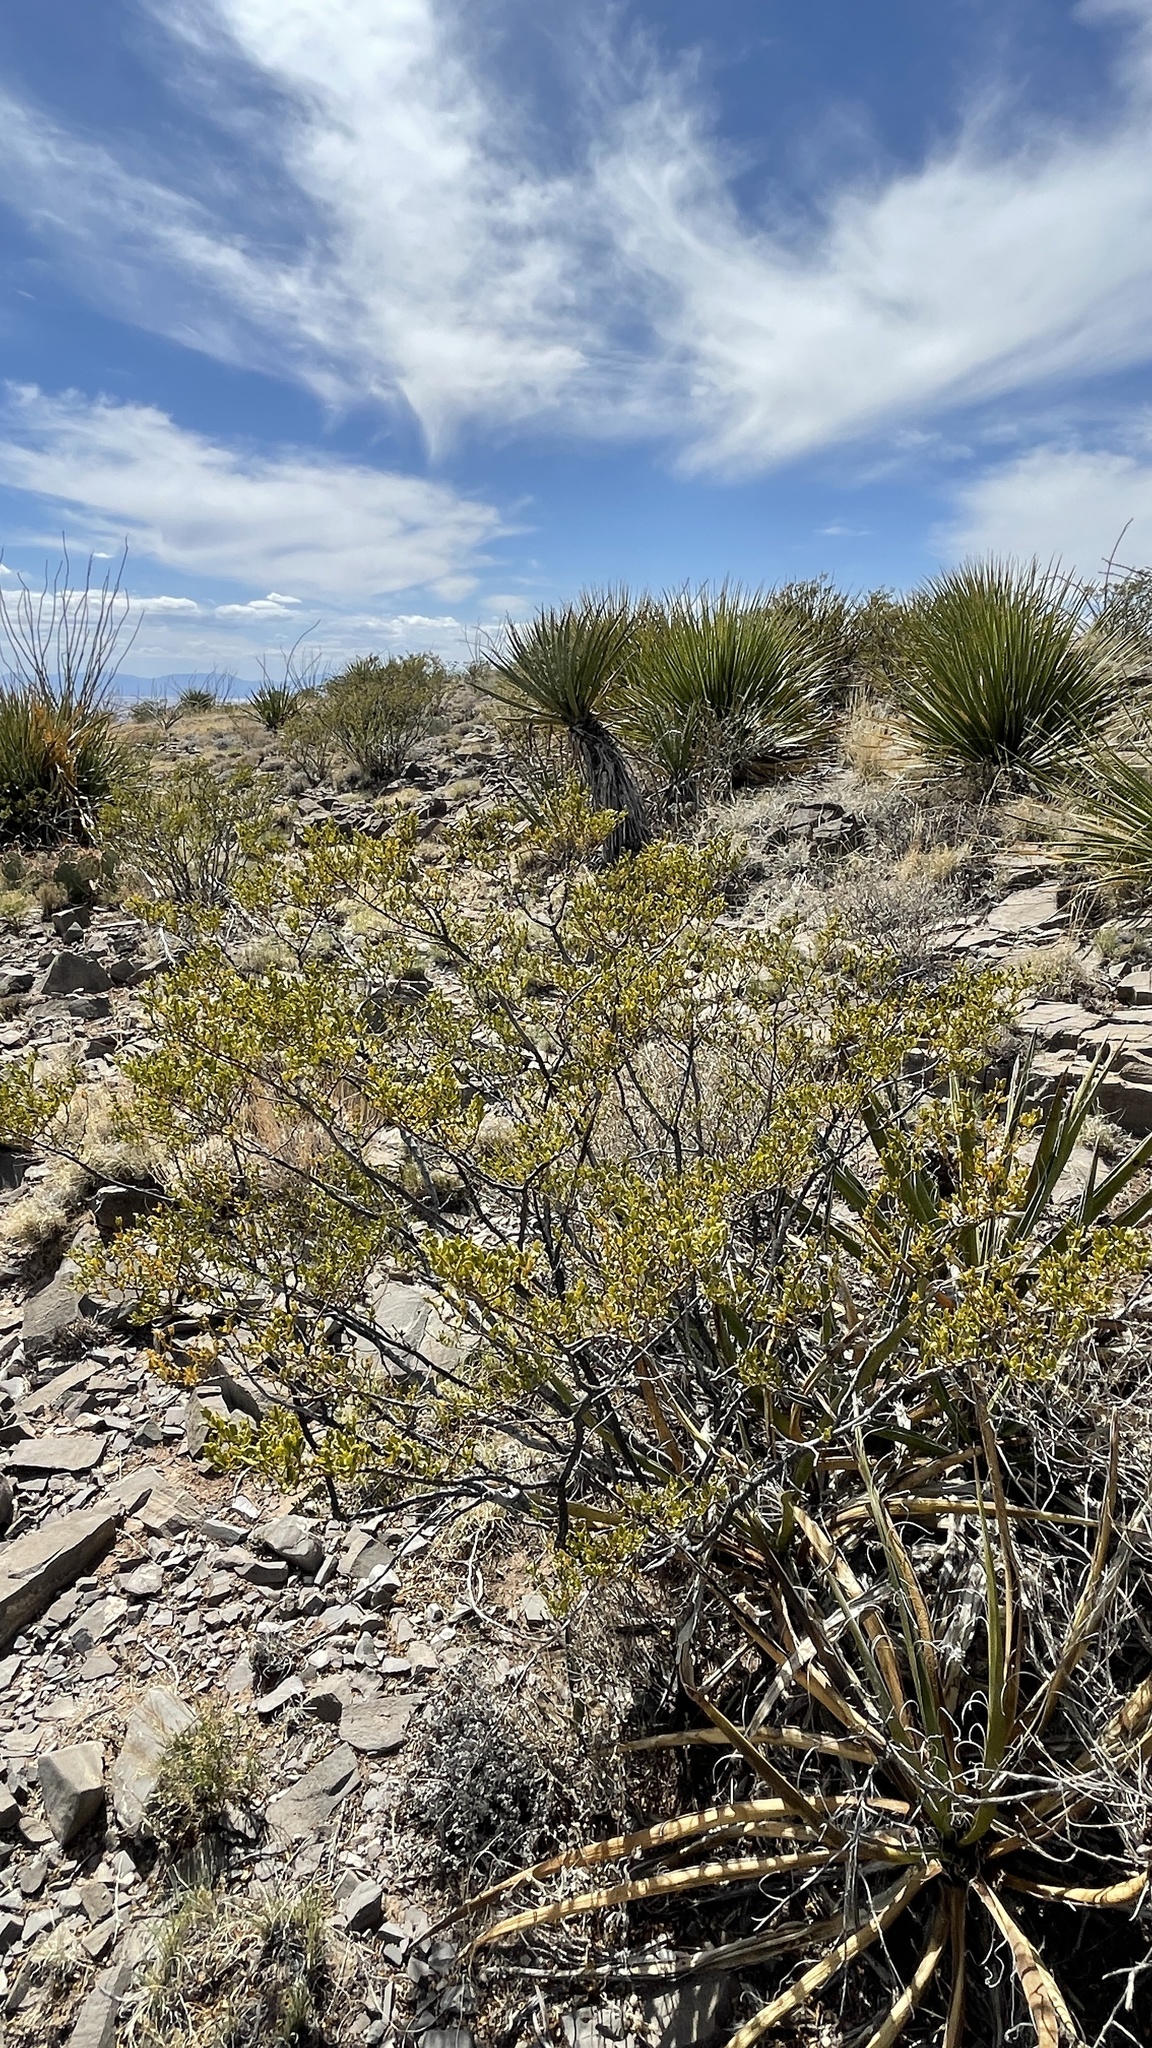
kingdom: Plantae
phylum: Tracheophyta
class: Magnoliopsida
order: Zygophyllales
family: Zygophyllaceae
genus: Larrea
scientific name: Larrea tridentata
